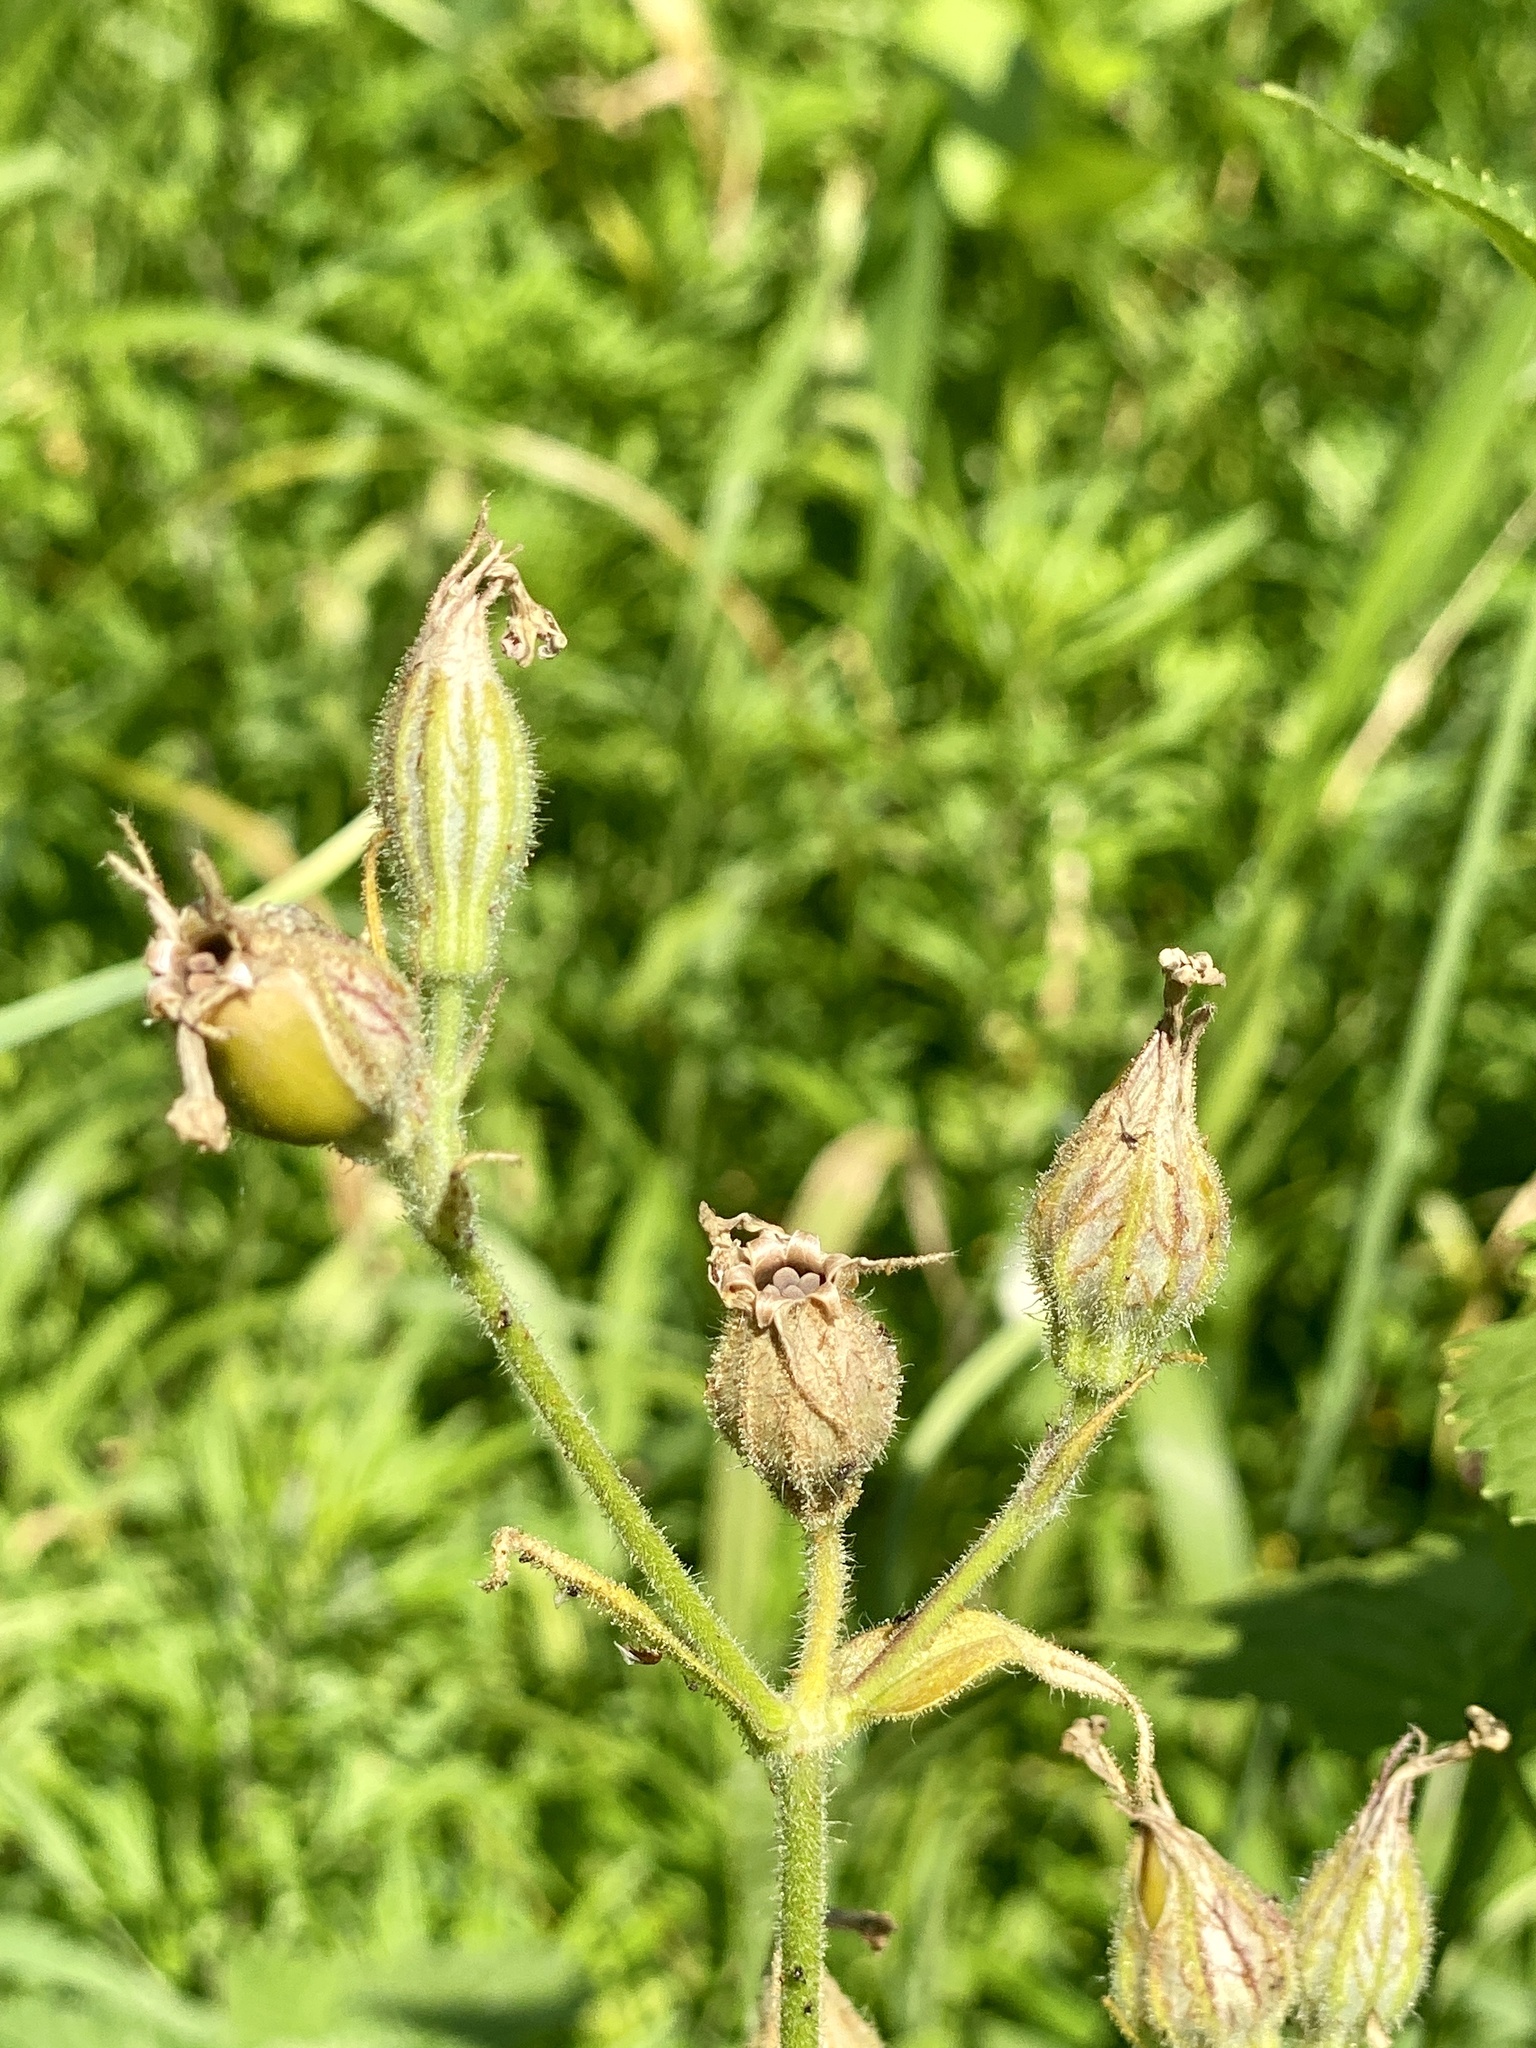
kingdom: Plantae
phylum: Tracheophyta
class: Magnoliopsida
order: Caryophyllales
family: Caryophyllaceae
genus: Silene
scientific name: Silene latifolia
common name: White campion
